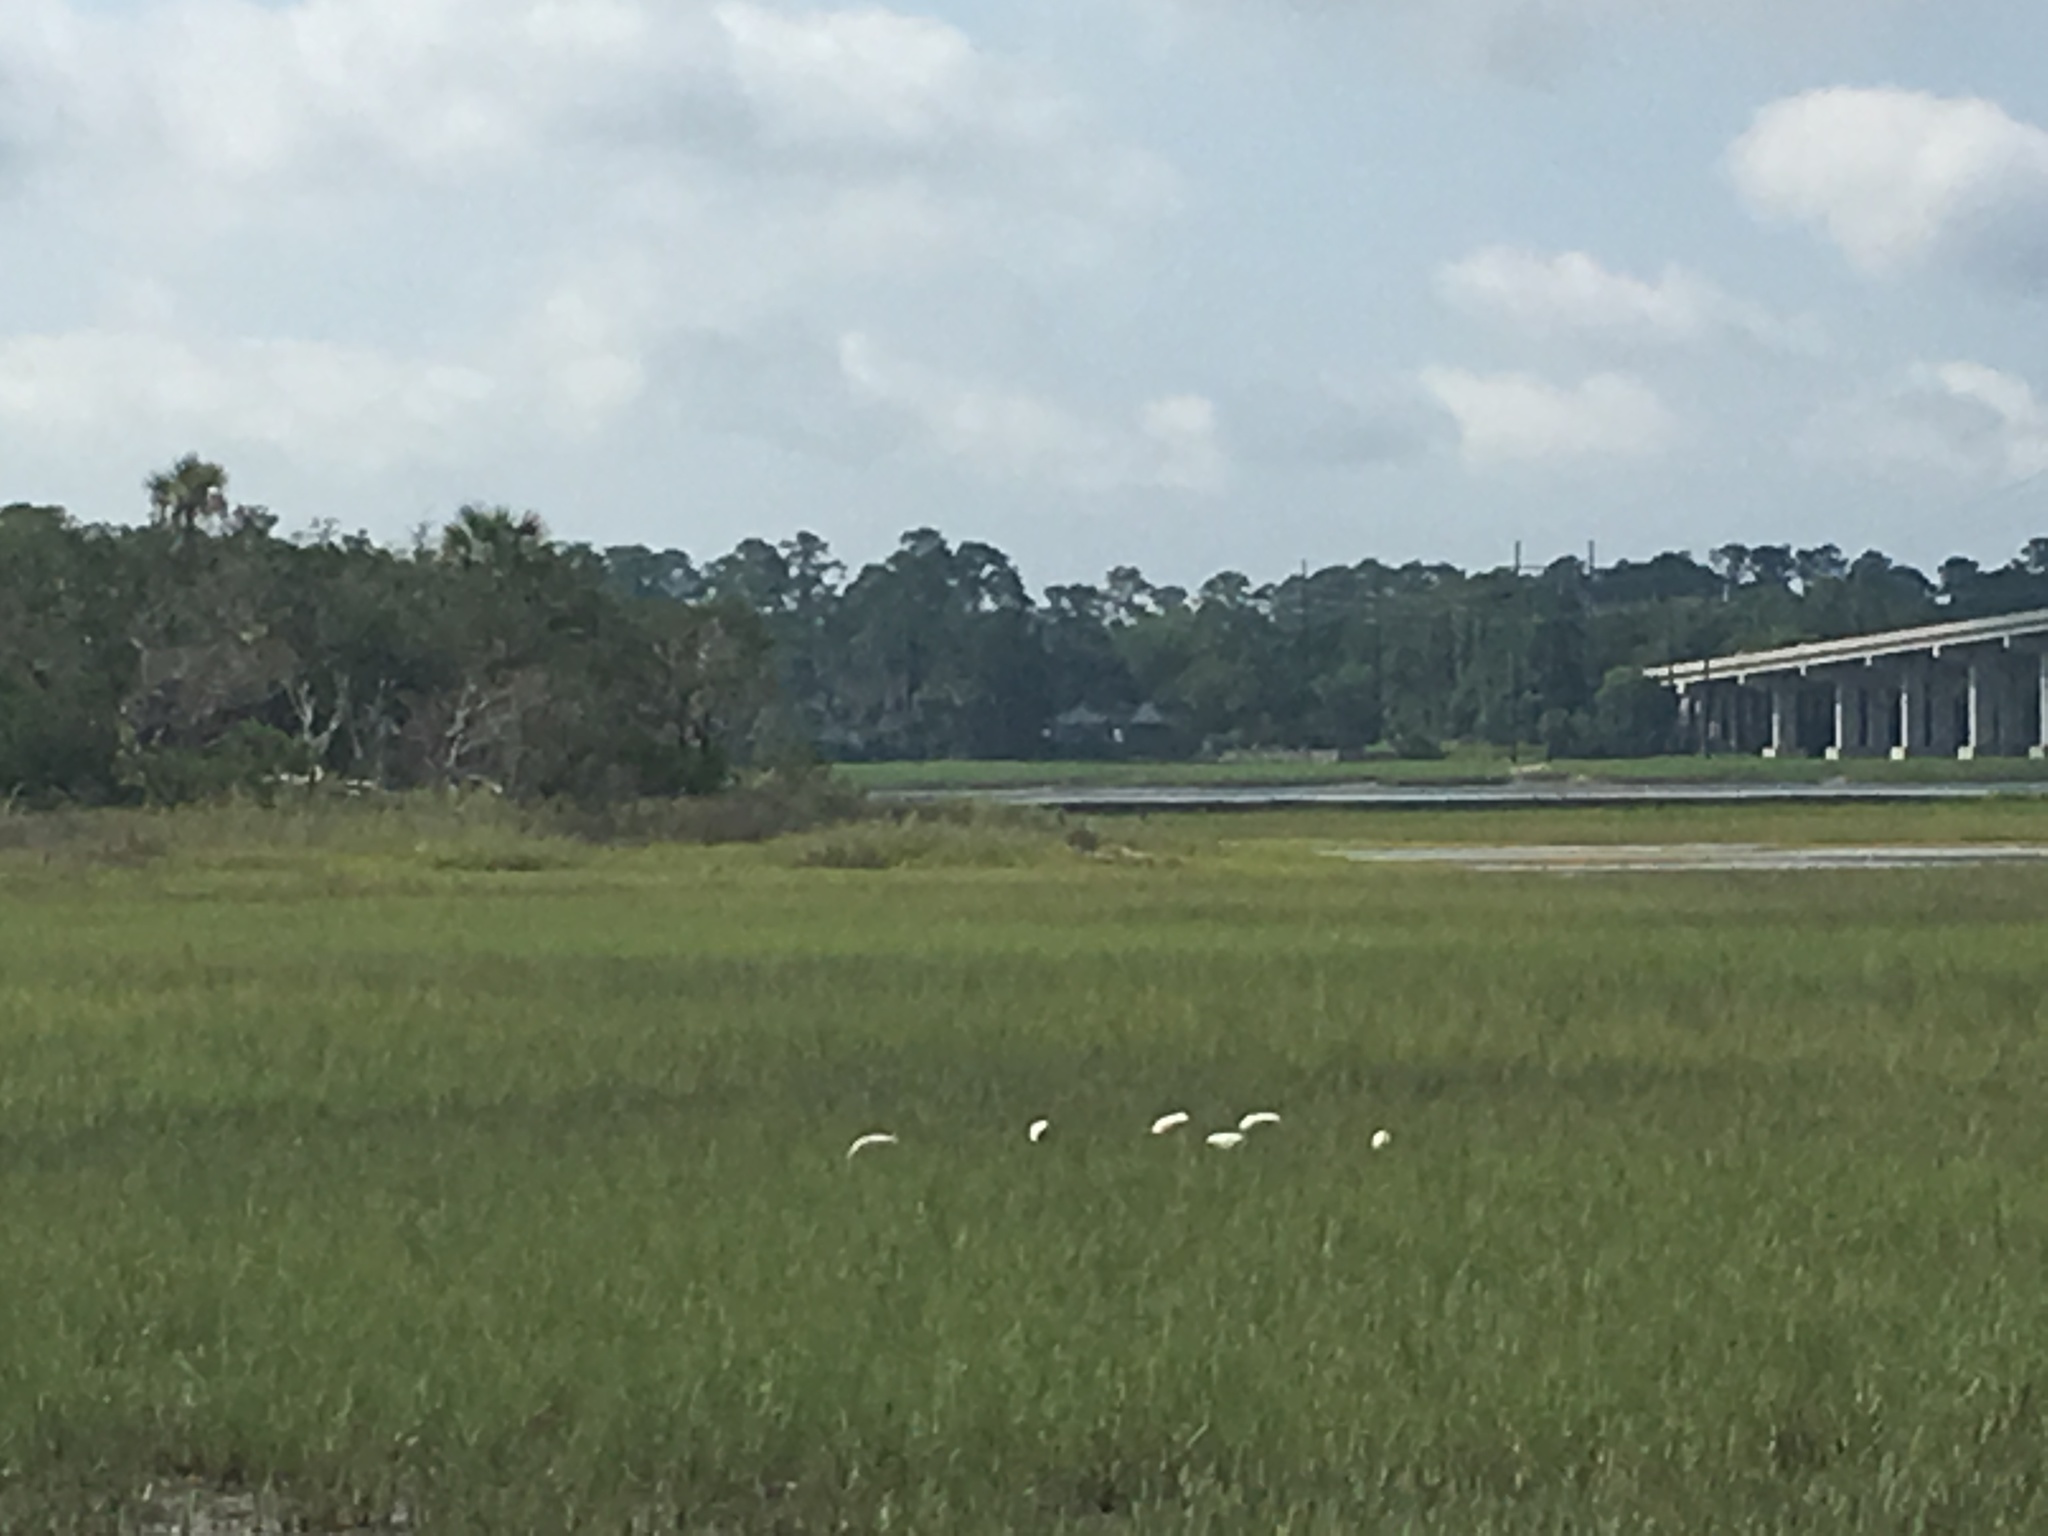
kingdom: Animalia
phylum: Chordata
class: Aves
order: Pelecaniformes
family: Threskiornithidae
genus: Eudocimus
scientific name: Eudocimus albus
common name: White ibis
